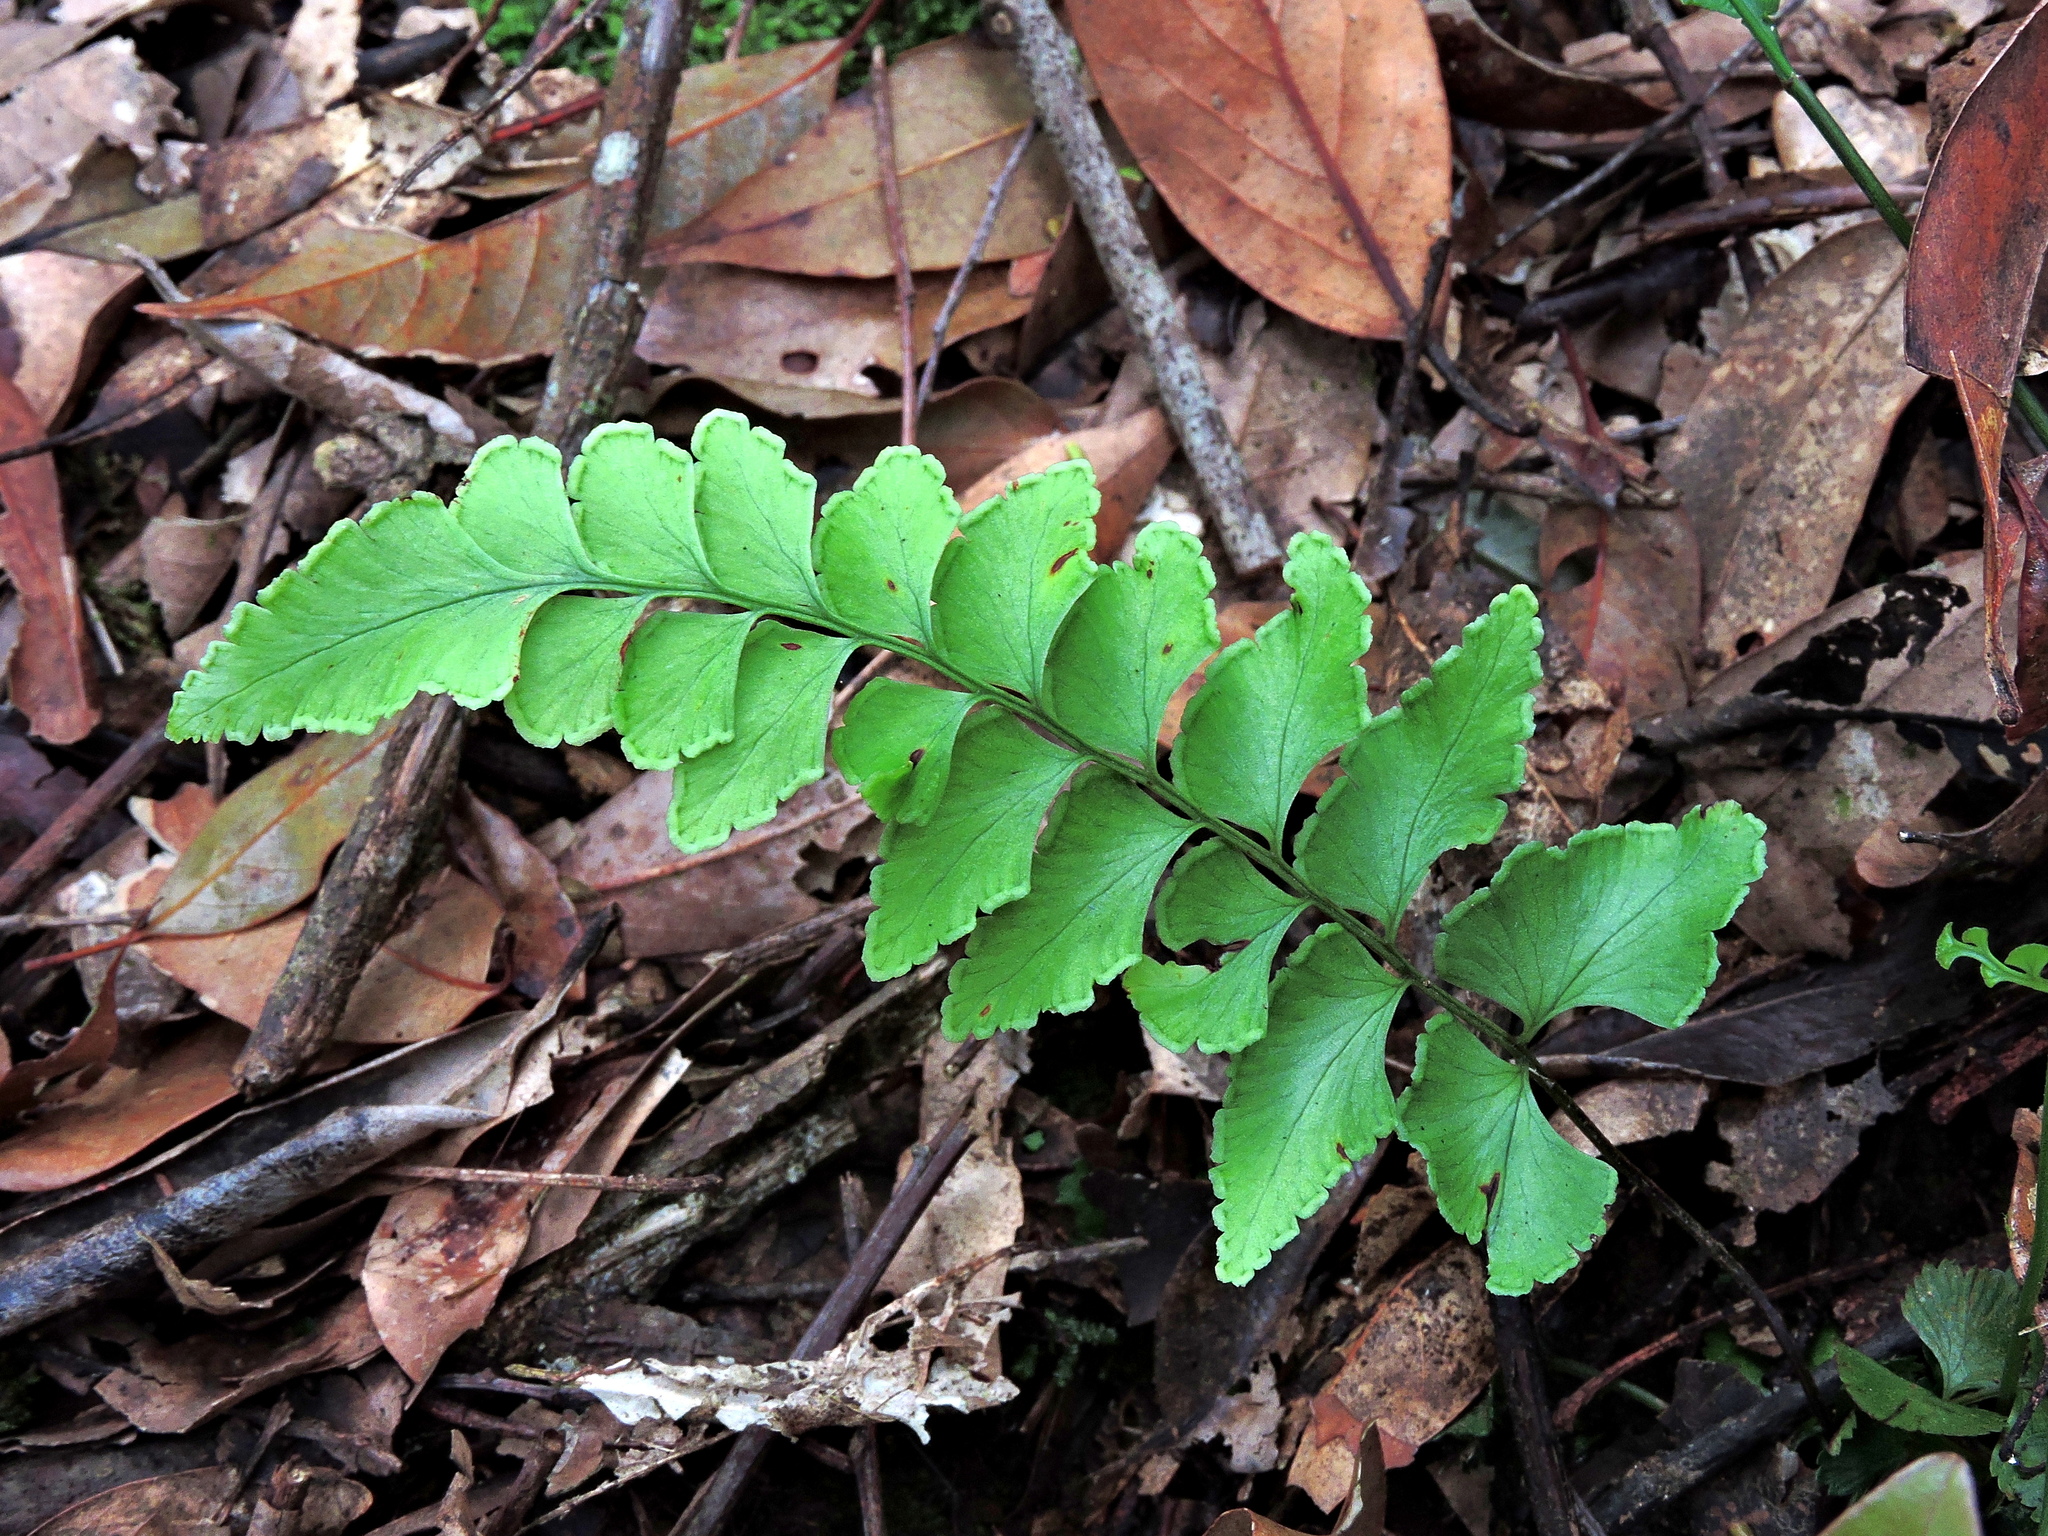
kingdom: Plantae
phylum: Tracheophyta
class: Polypodiopsida
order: Polypodiales
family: Lindsaeaceae
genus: Lindsaea
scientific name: Lindsaea javanensis
